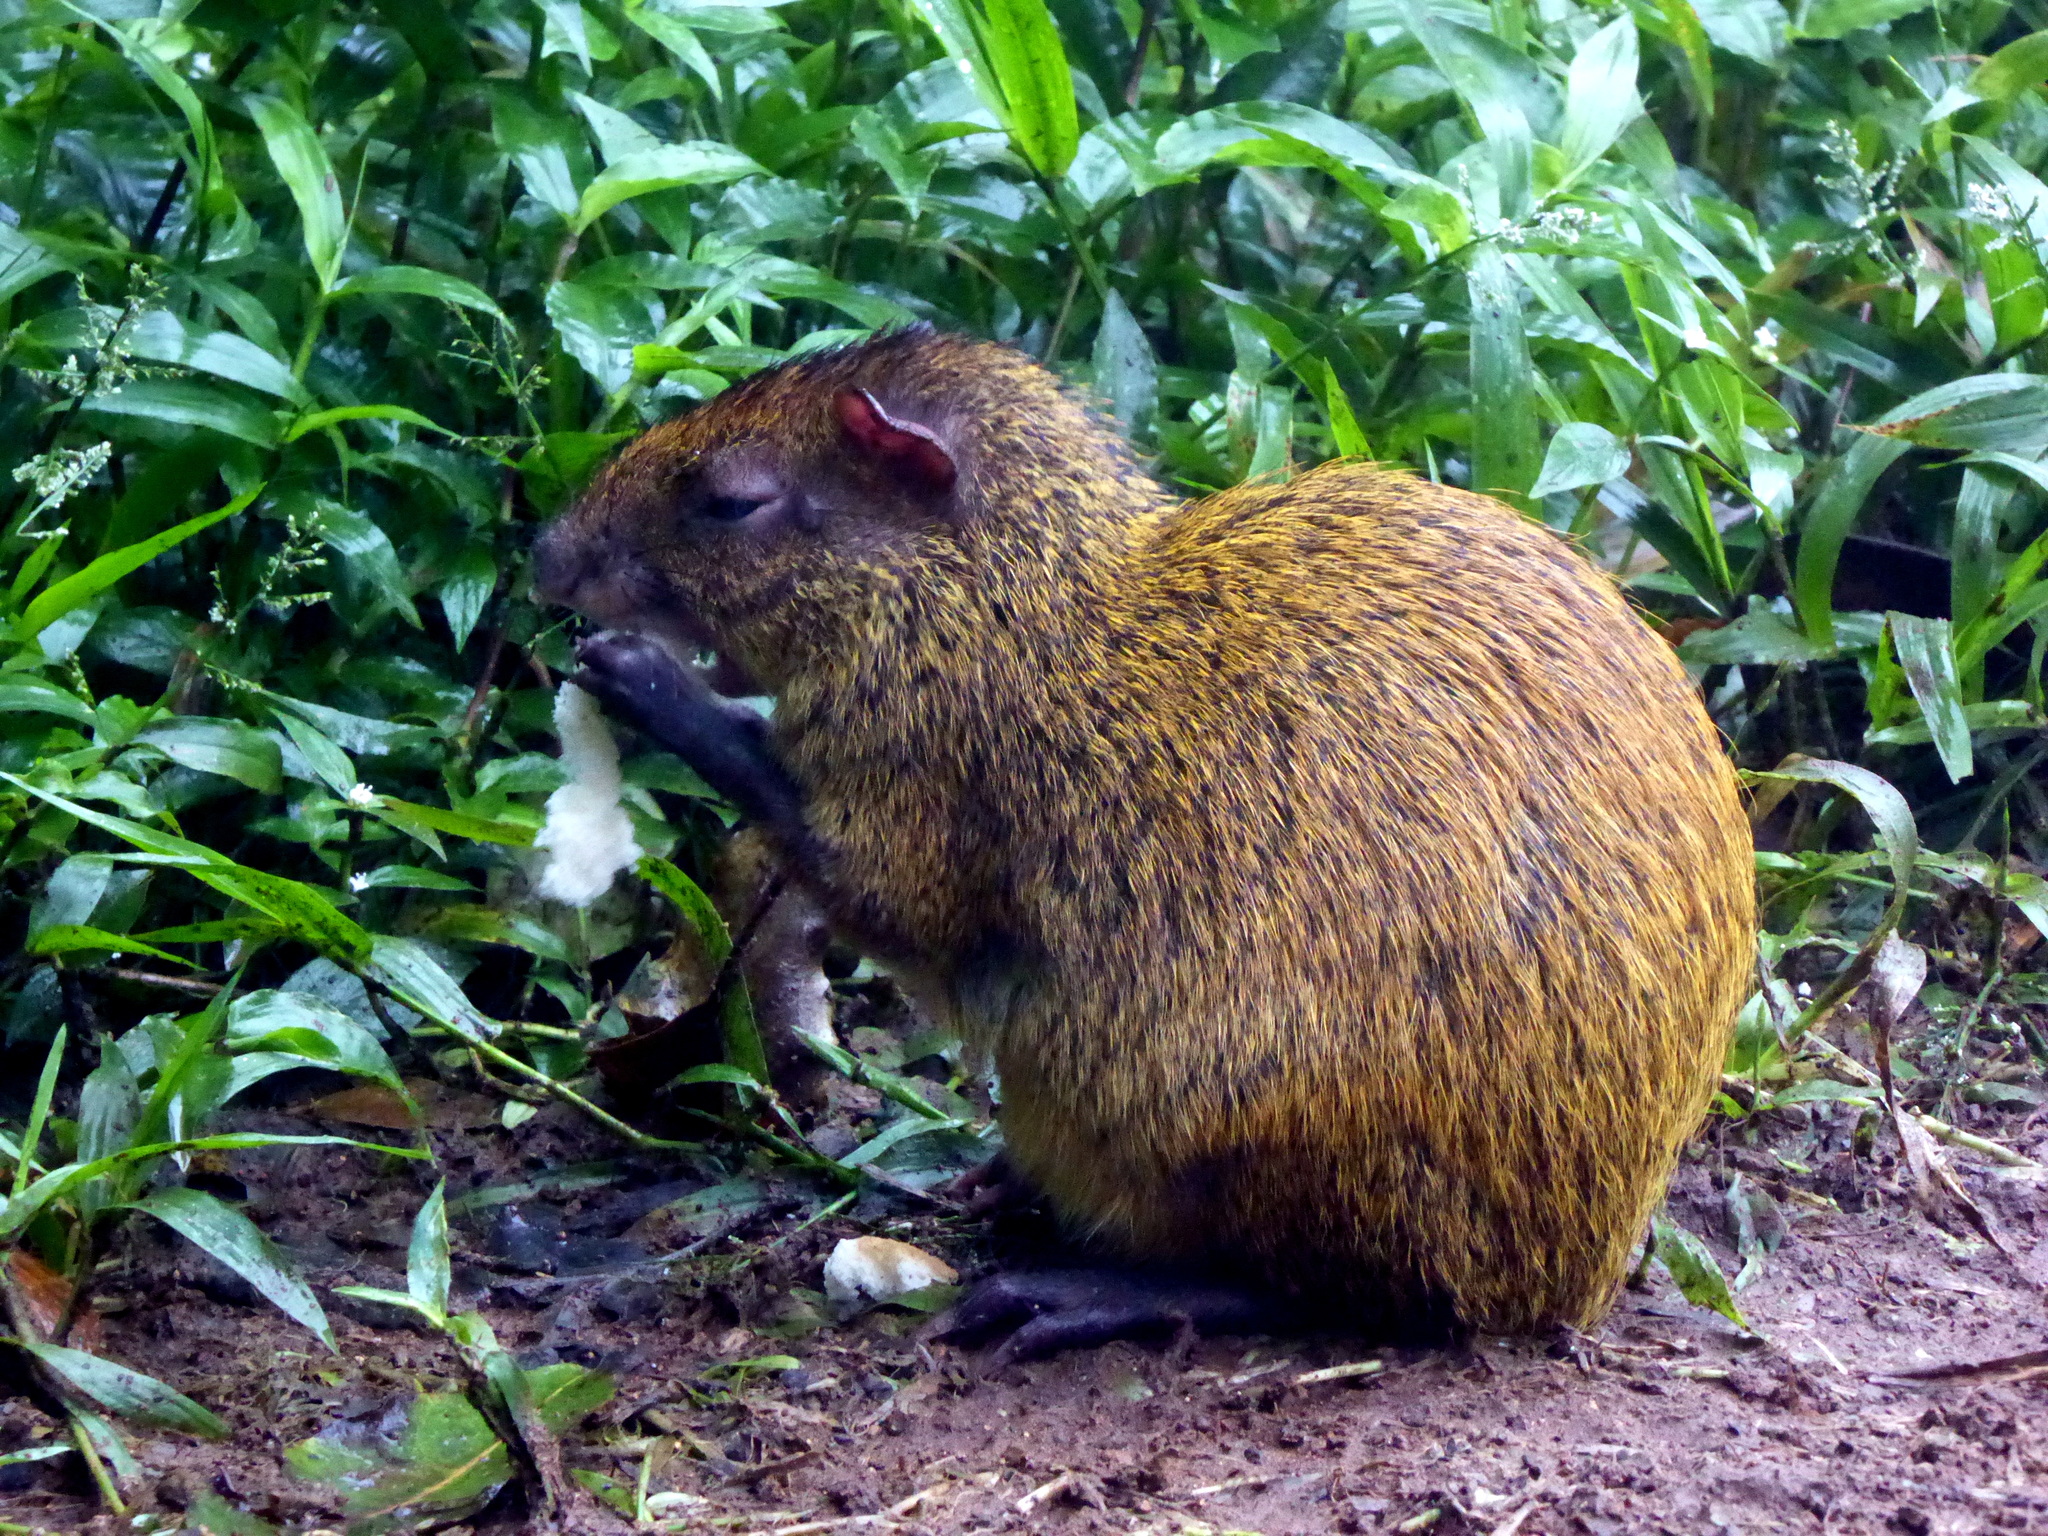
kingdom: Animalia
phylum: Chordata
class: Mammalia
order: Rodentia
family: Dasyproctidae
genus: Dasyprocta
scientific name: Dasyprocta punctata
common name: Central american agouti
